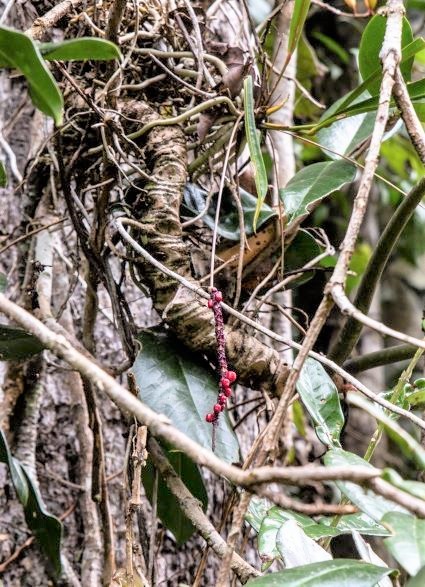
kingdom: Plantae
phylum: Tracheophyta
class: Liliopsida
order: Alismatales
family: Araceae
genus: Anthurium
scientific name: Anthurium gracile
